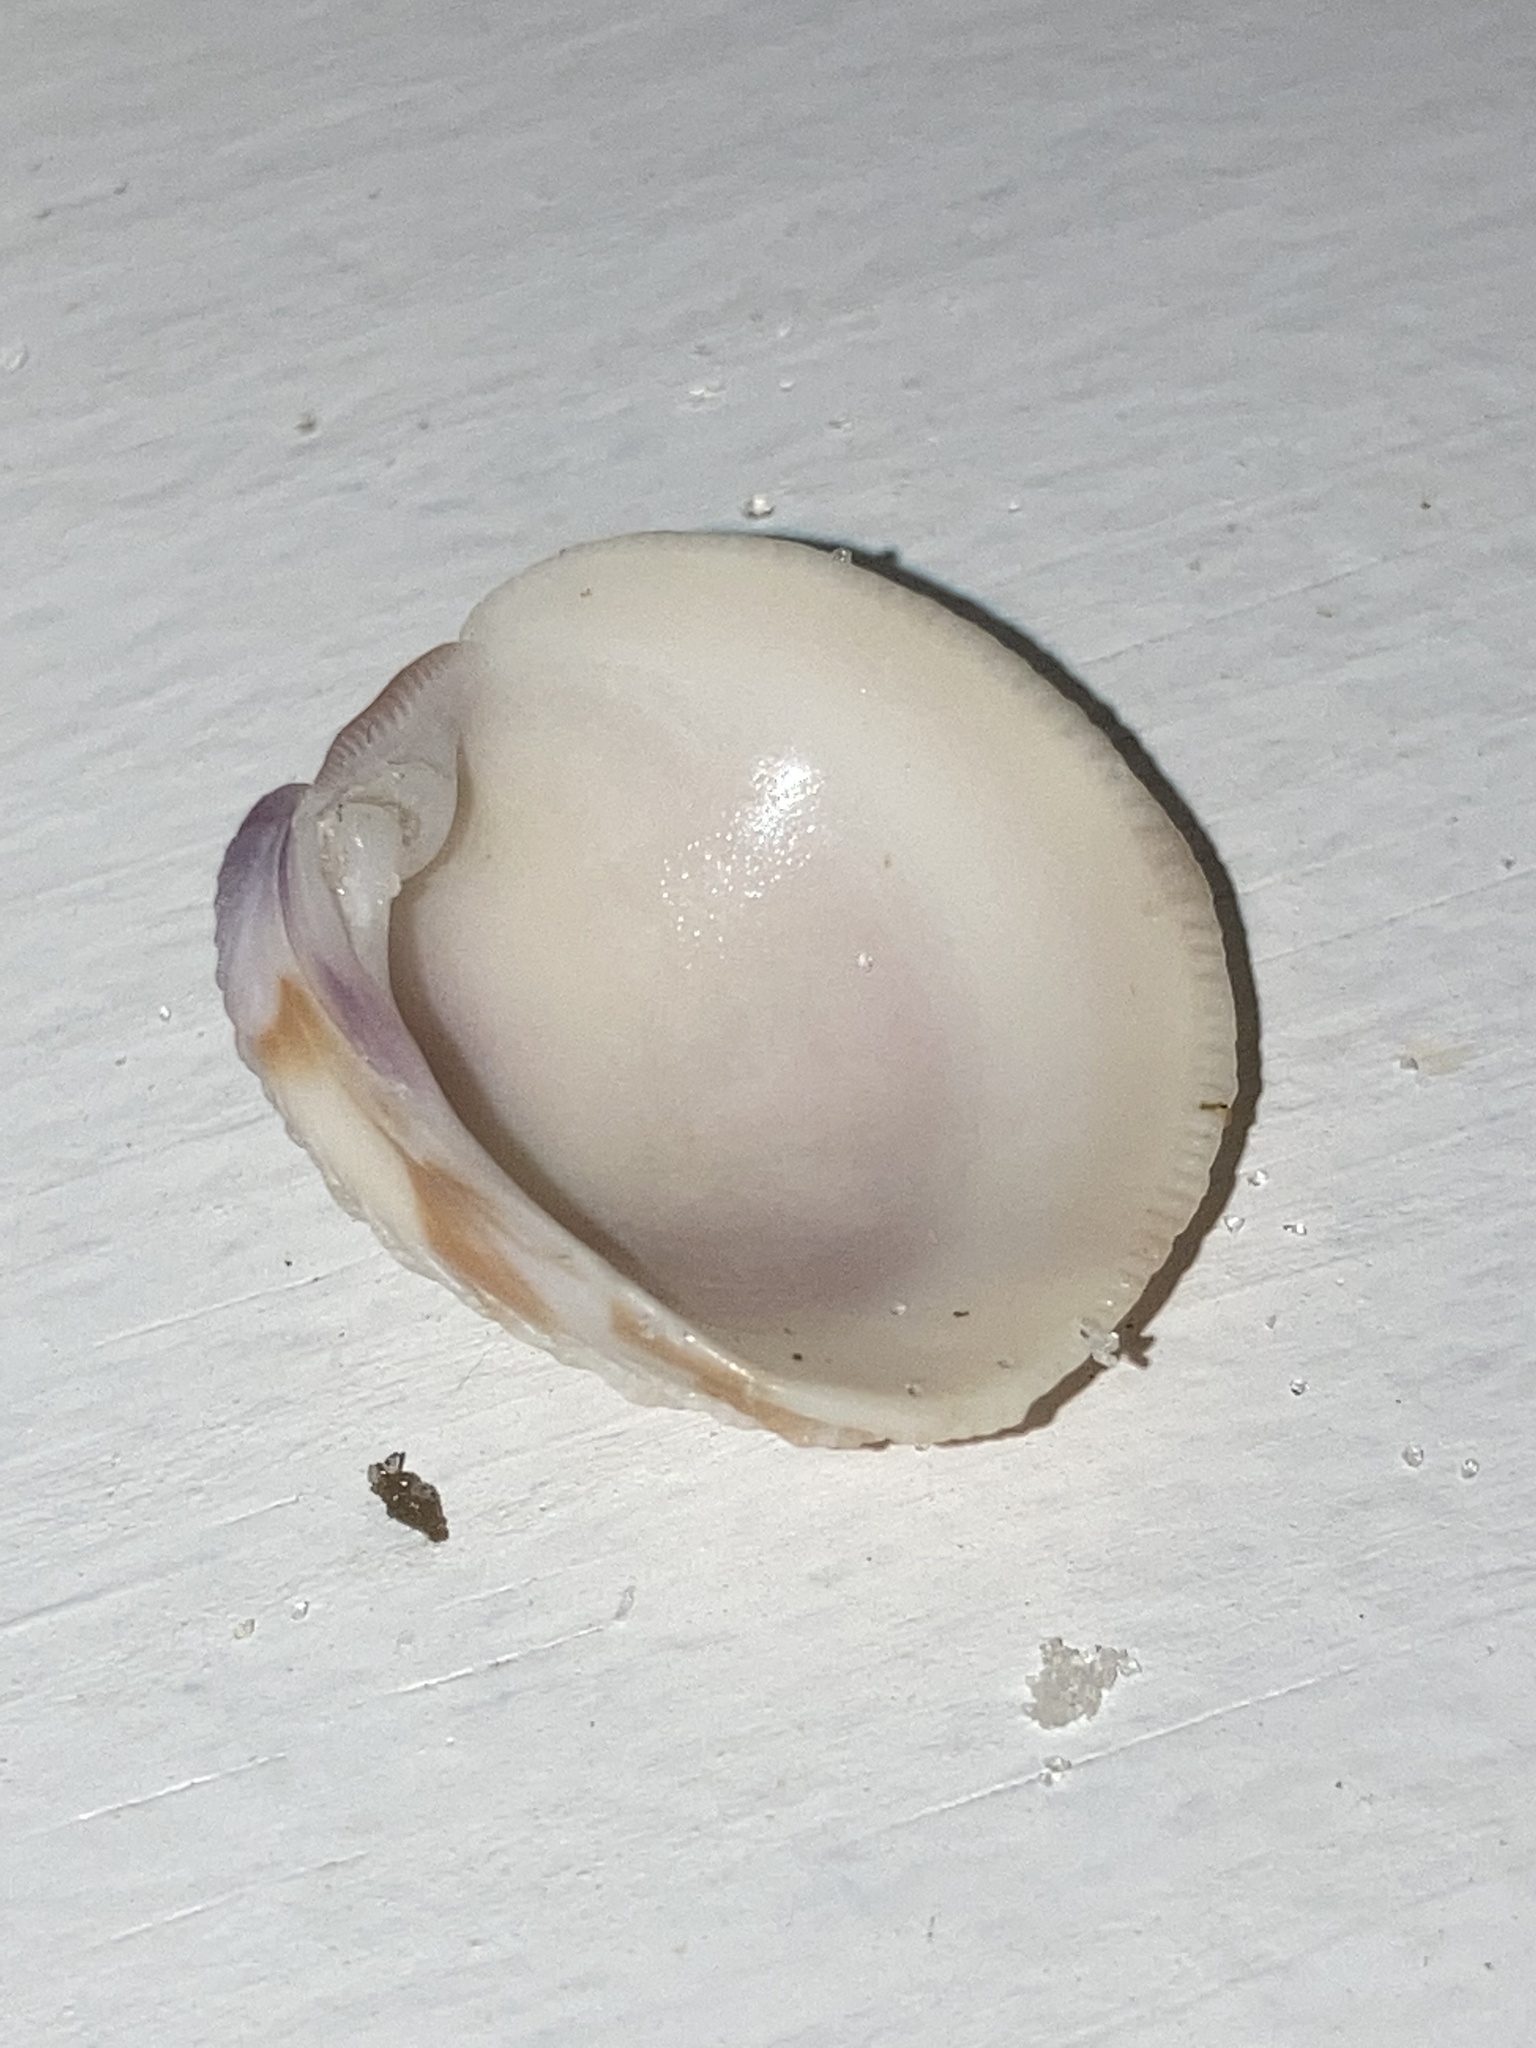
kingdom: Animalia
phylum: Mollusca
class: Bivalvia
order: Venerida
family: Veneridae
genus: Chionopsis
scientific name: Chionopsis intapurpurea
